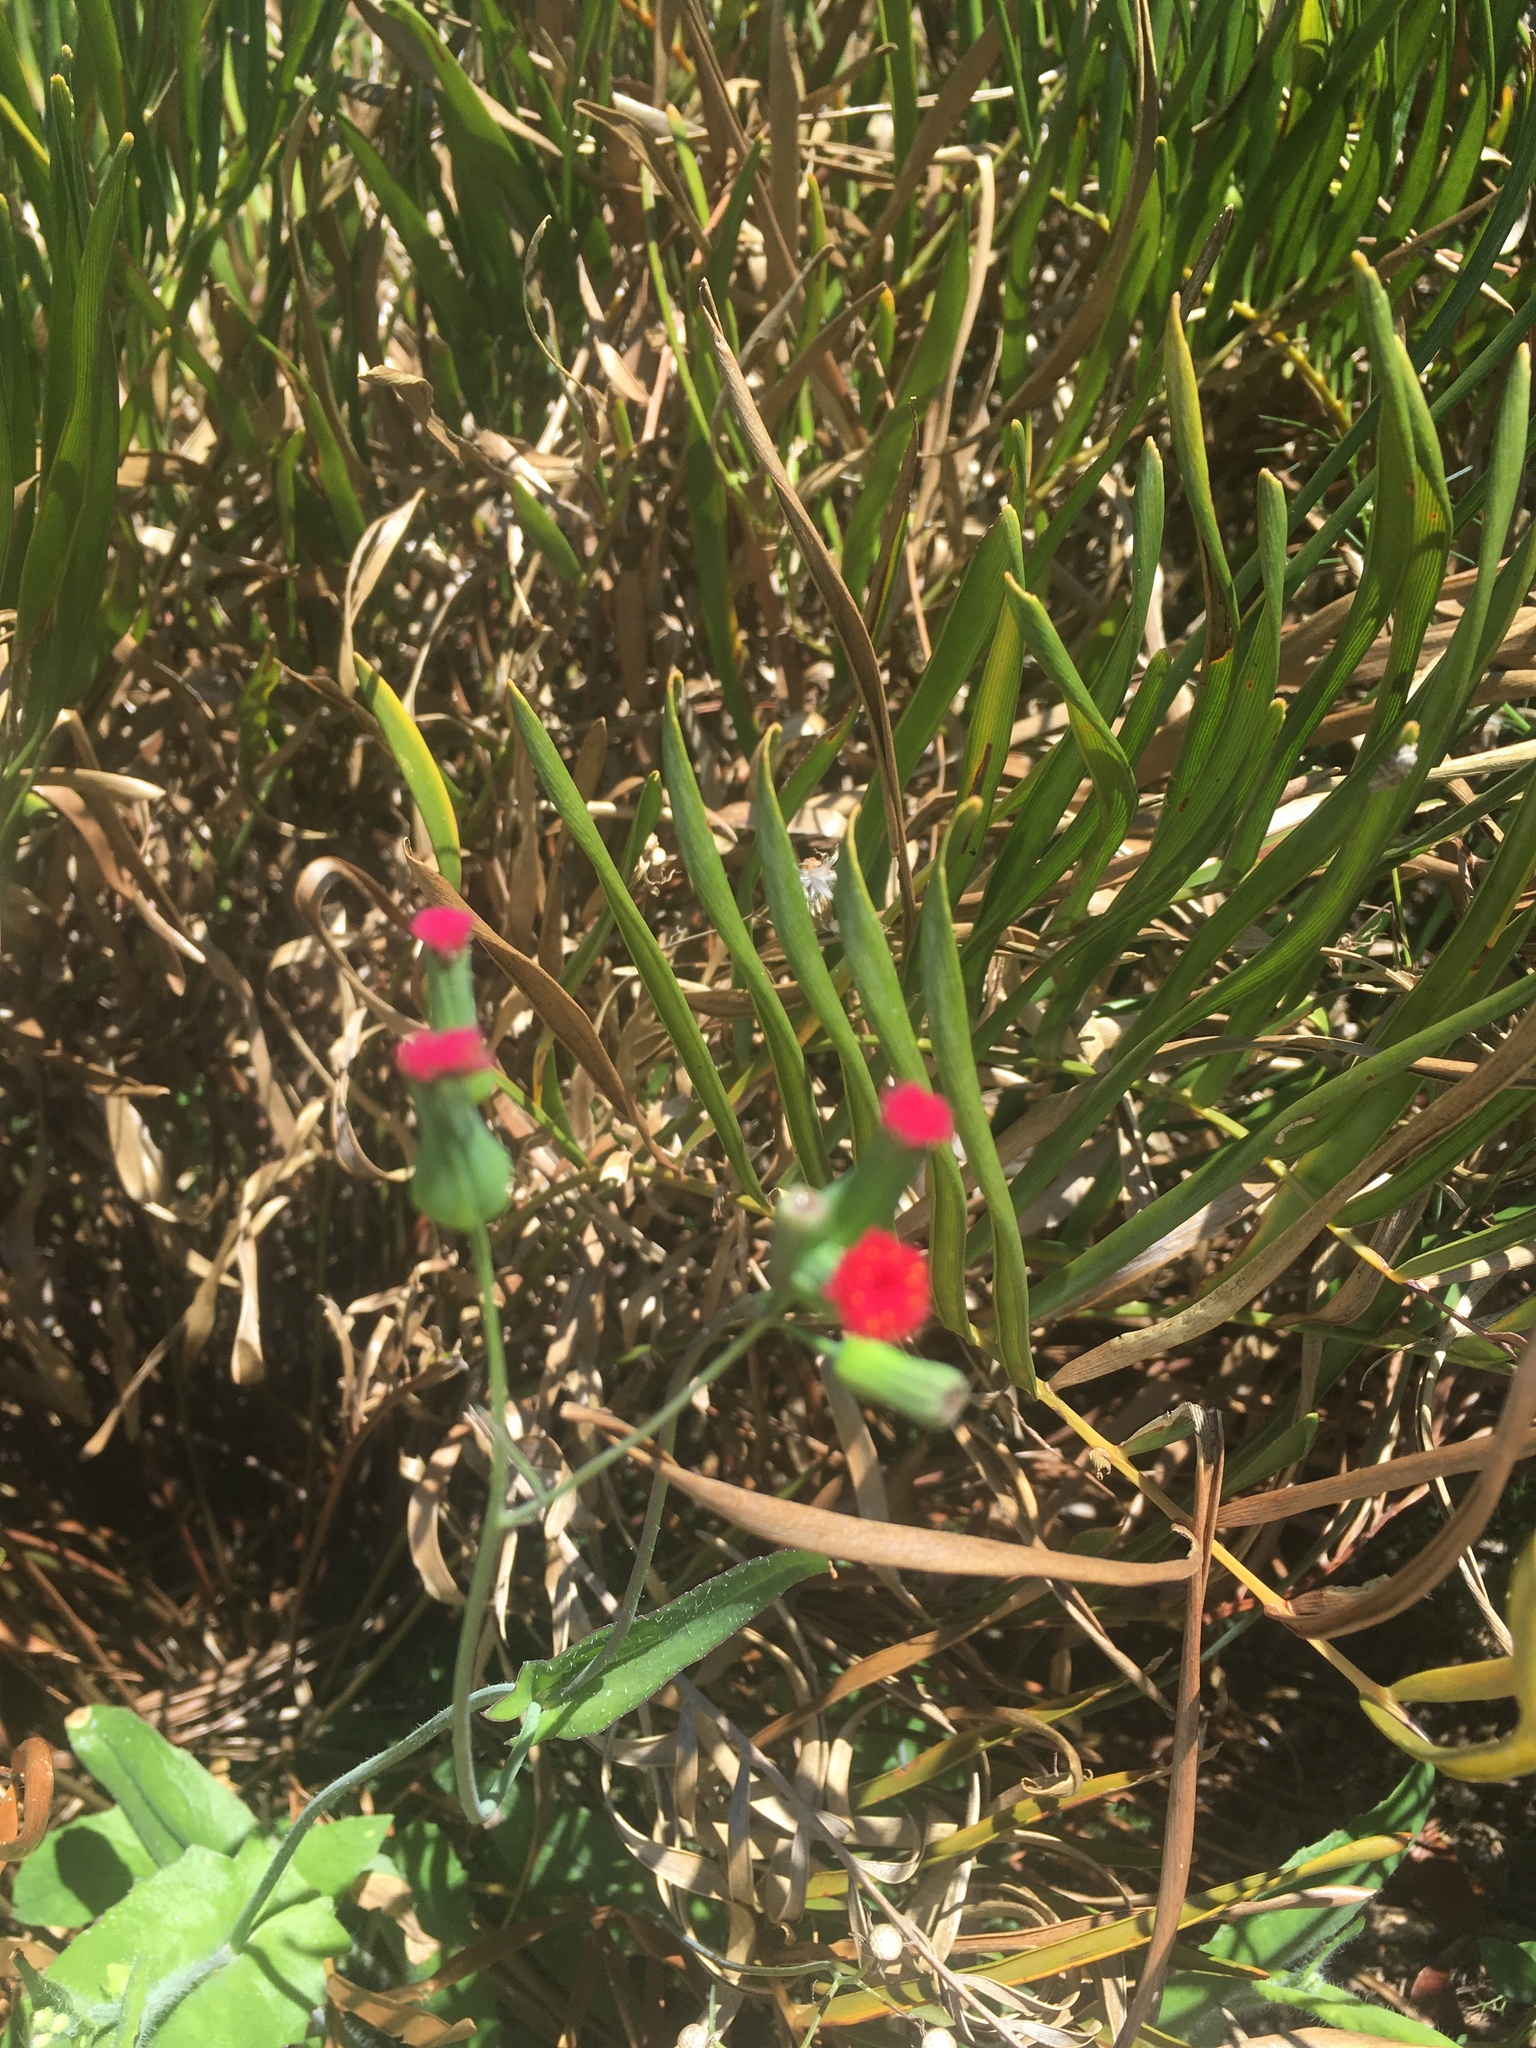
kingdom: Plantae
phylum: Tracheophyta
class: Magnoliopsida
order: Asterales
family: Asteraceae
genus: Emilia
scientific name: Emilia fosbergii
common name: Florida tasselflower
